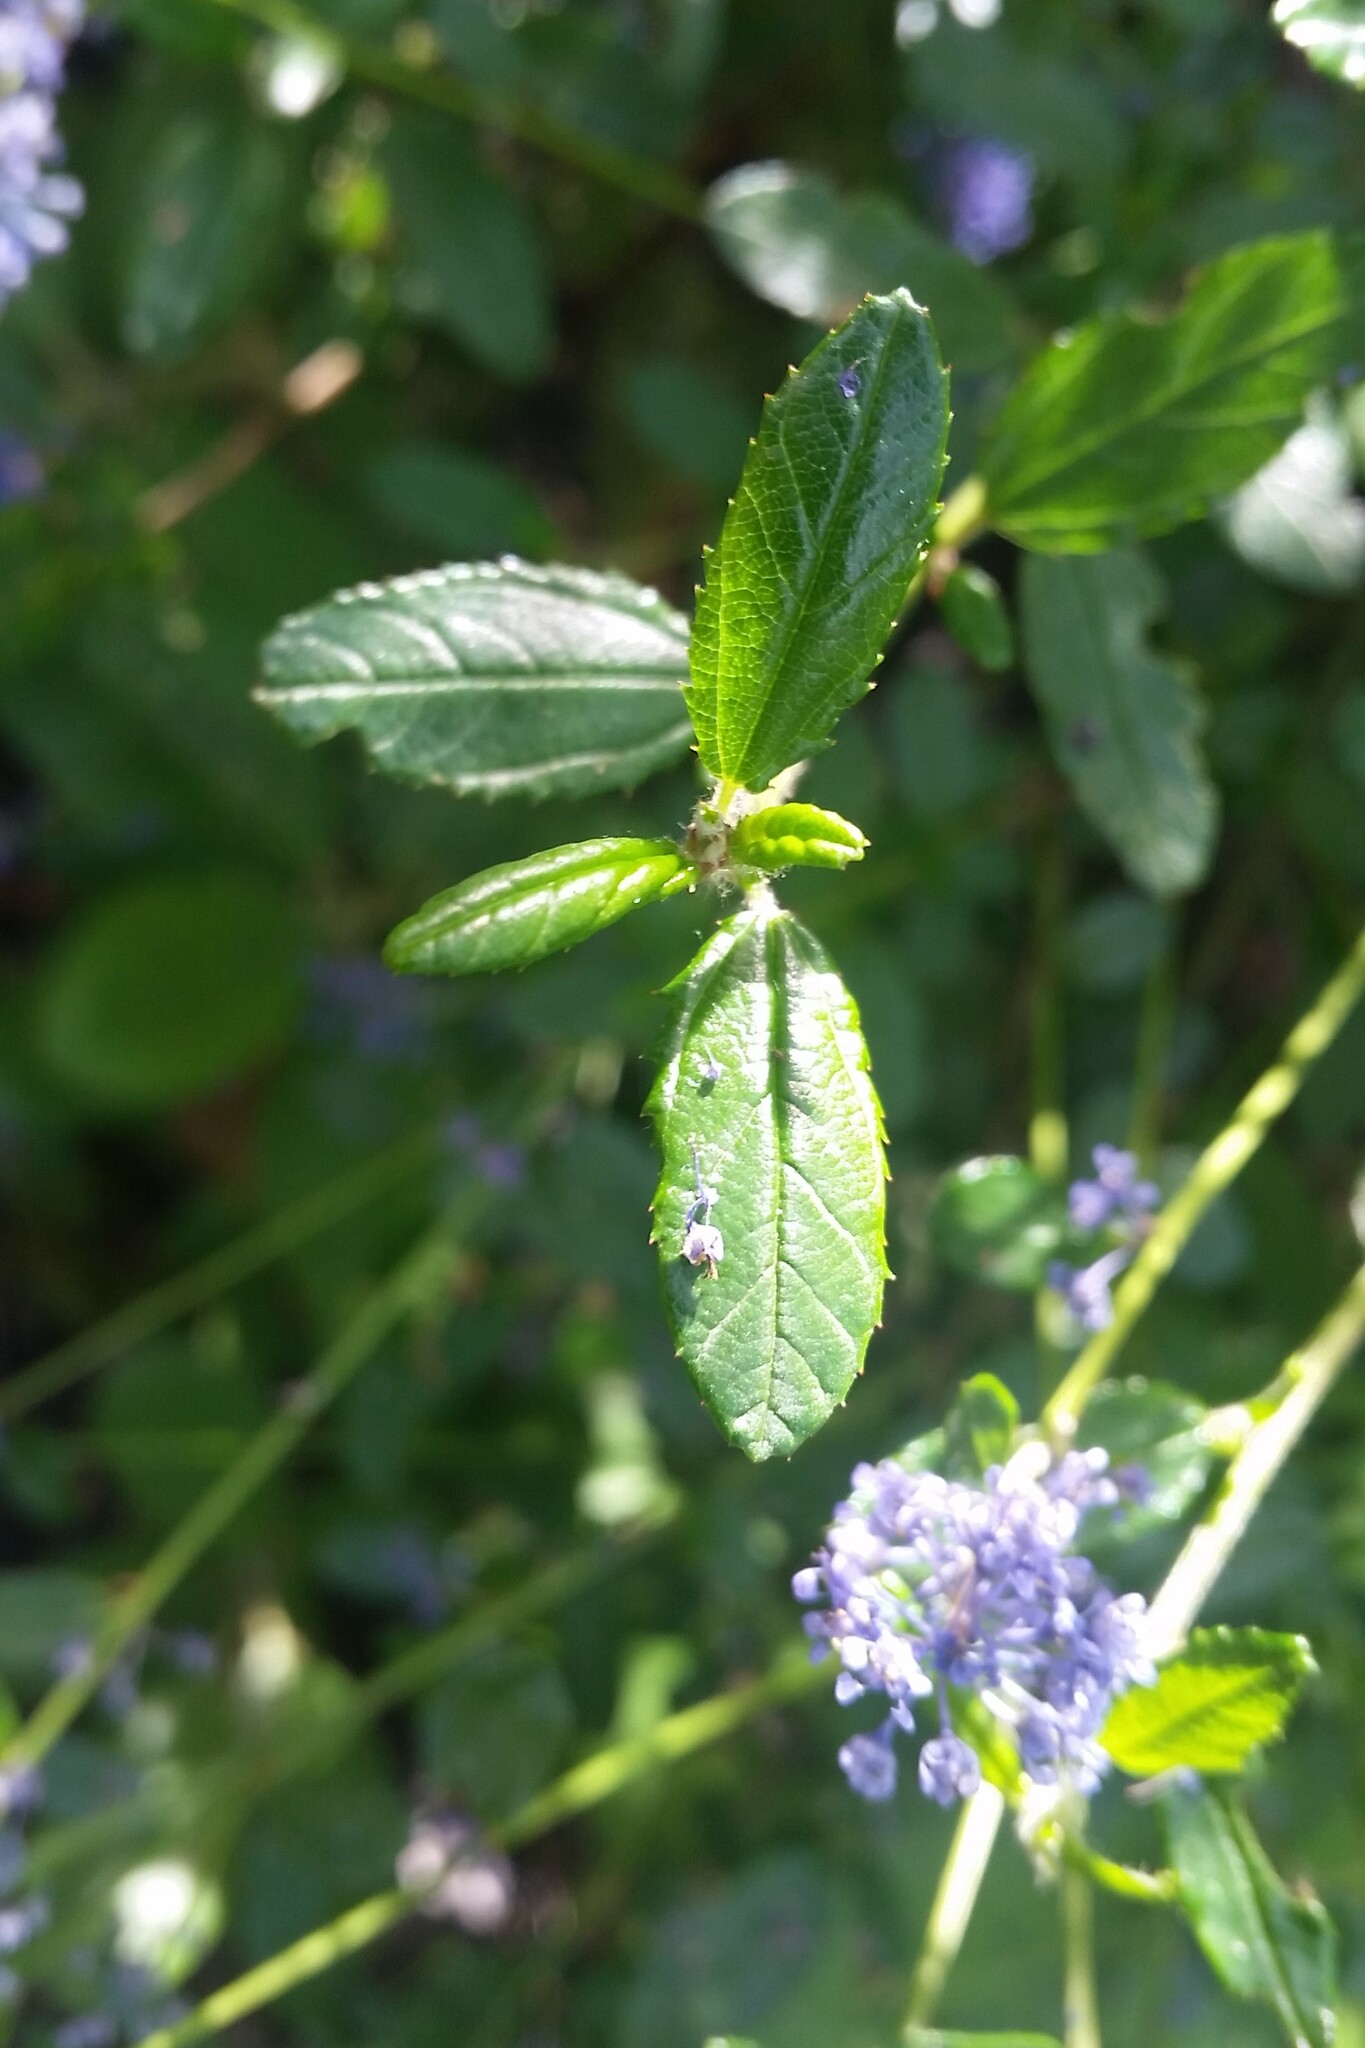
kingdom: Plantae
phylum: Tracheophyta
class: Magnoliopsida
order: Rosales
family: Rhamnaceae
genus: Ceanothus
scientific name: Ceanothus parryi
